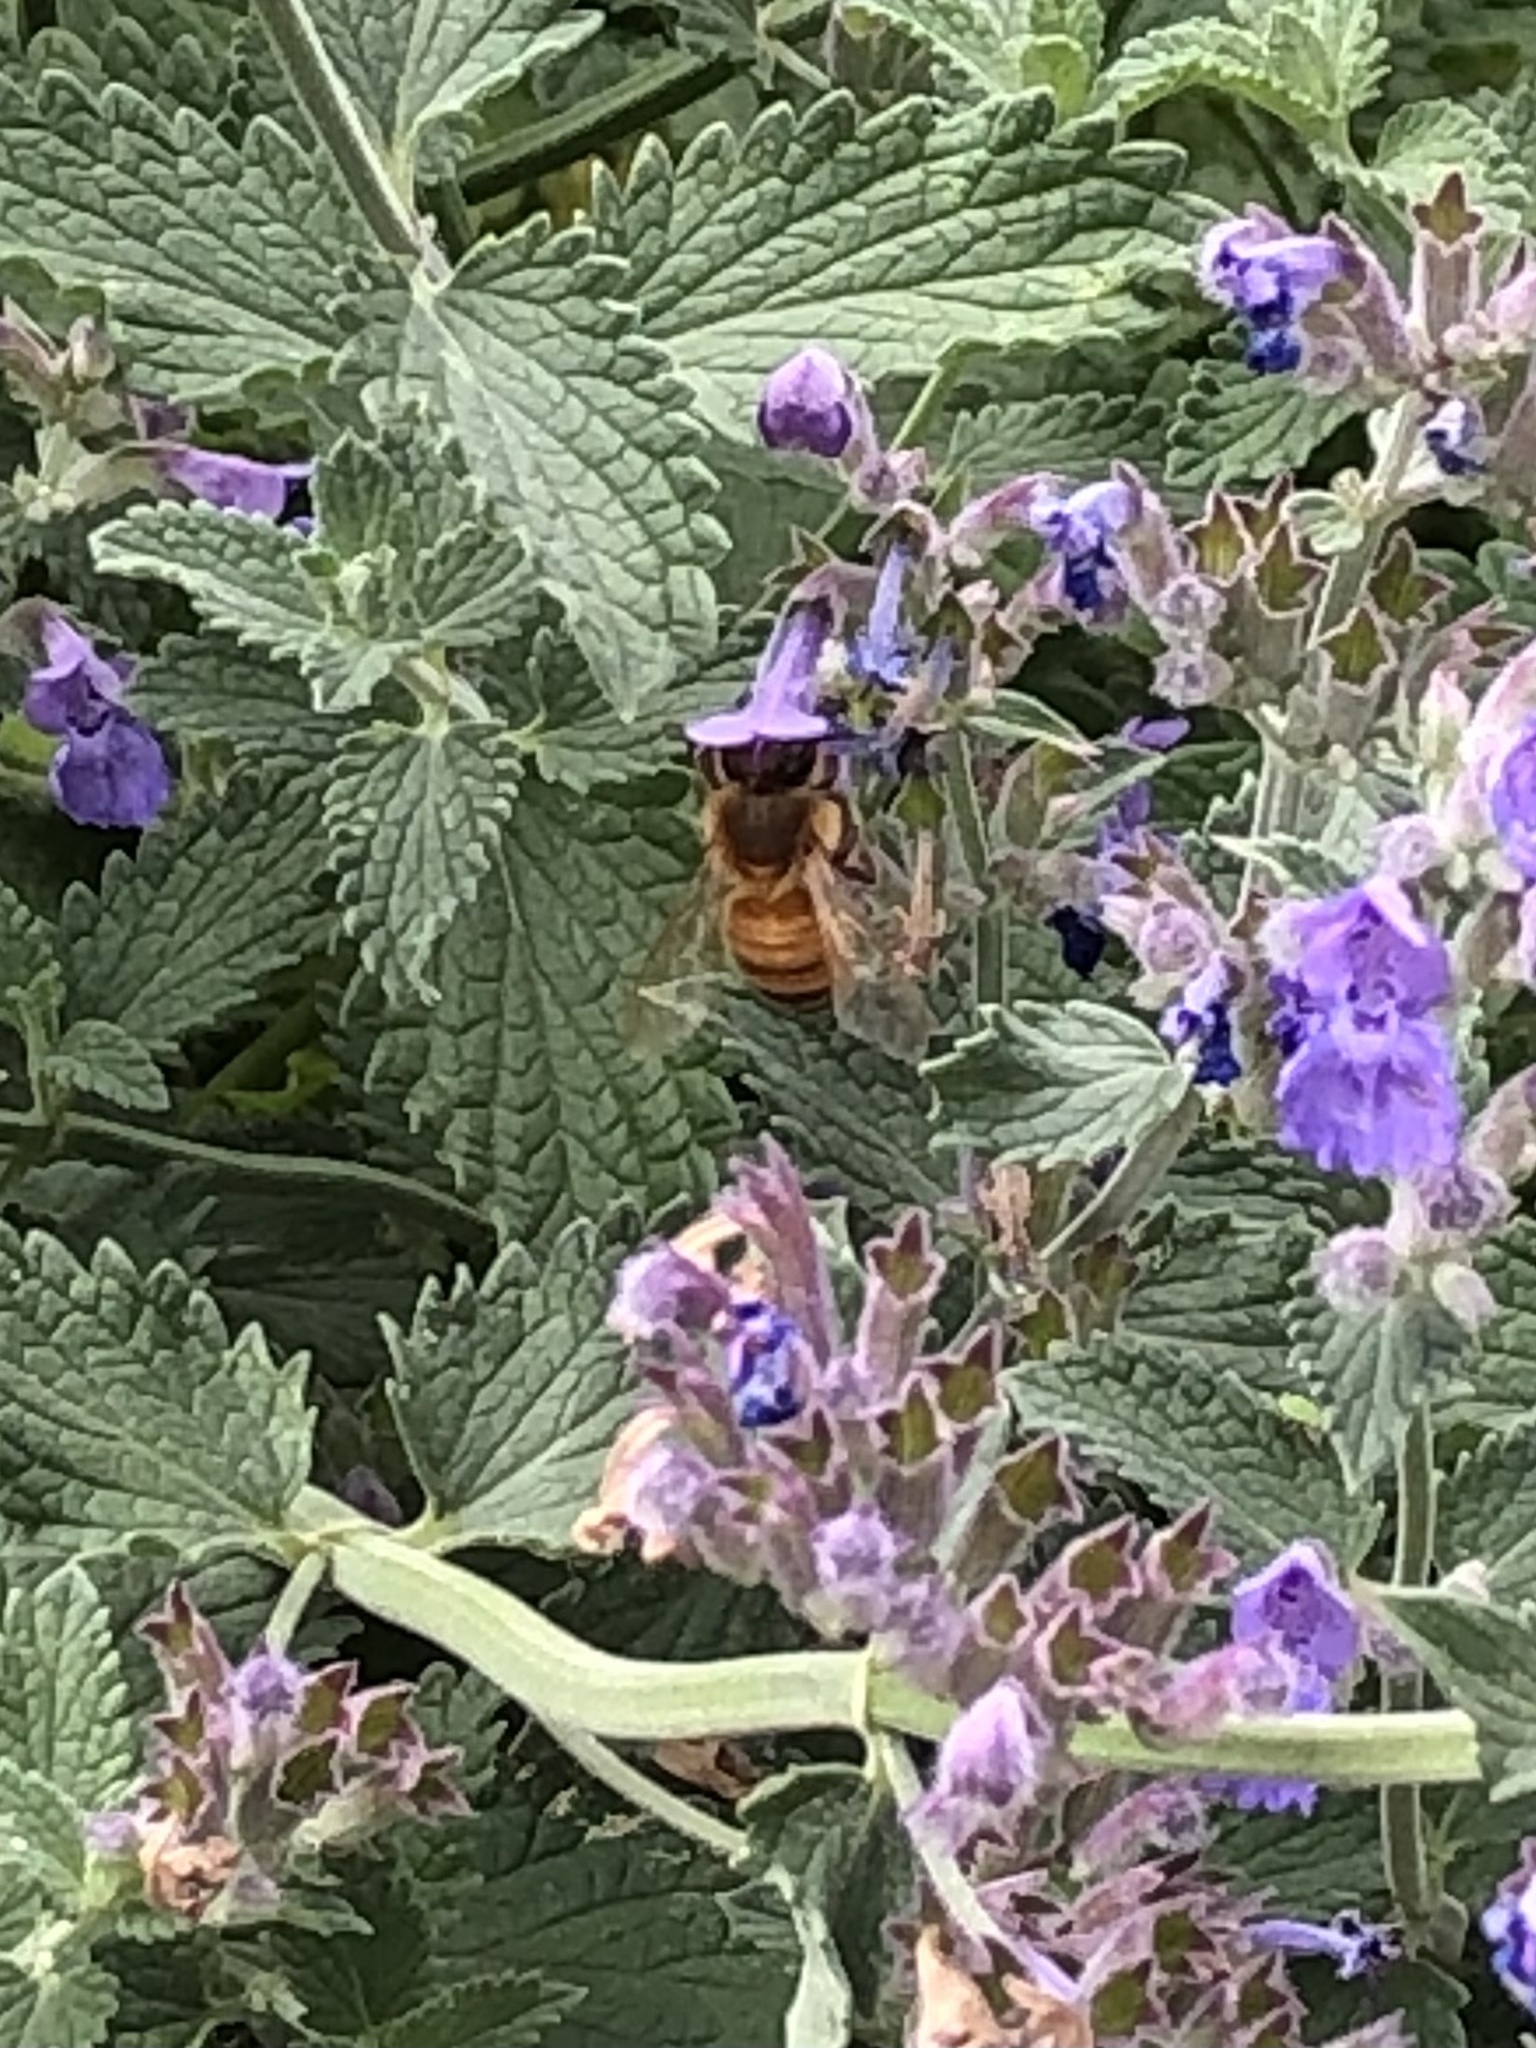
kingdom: Animalia
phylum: Arthropoda
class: Insecta
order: Hymenoptera
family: Apidae
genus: Apis
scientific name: Apis mellifera
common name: Honey bee
